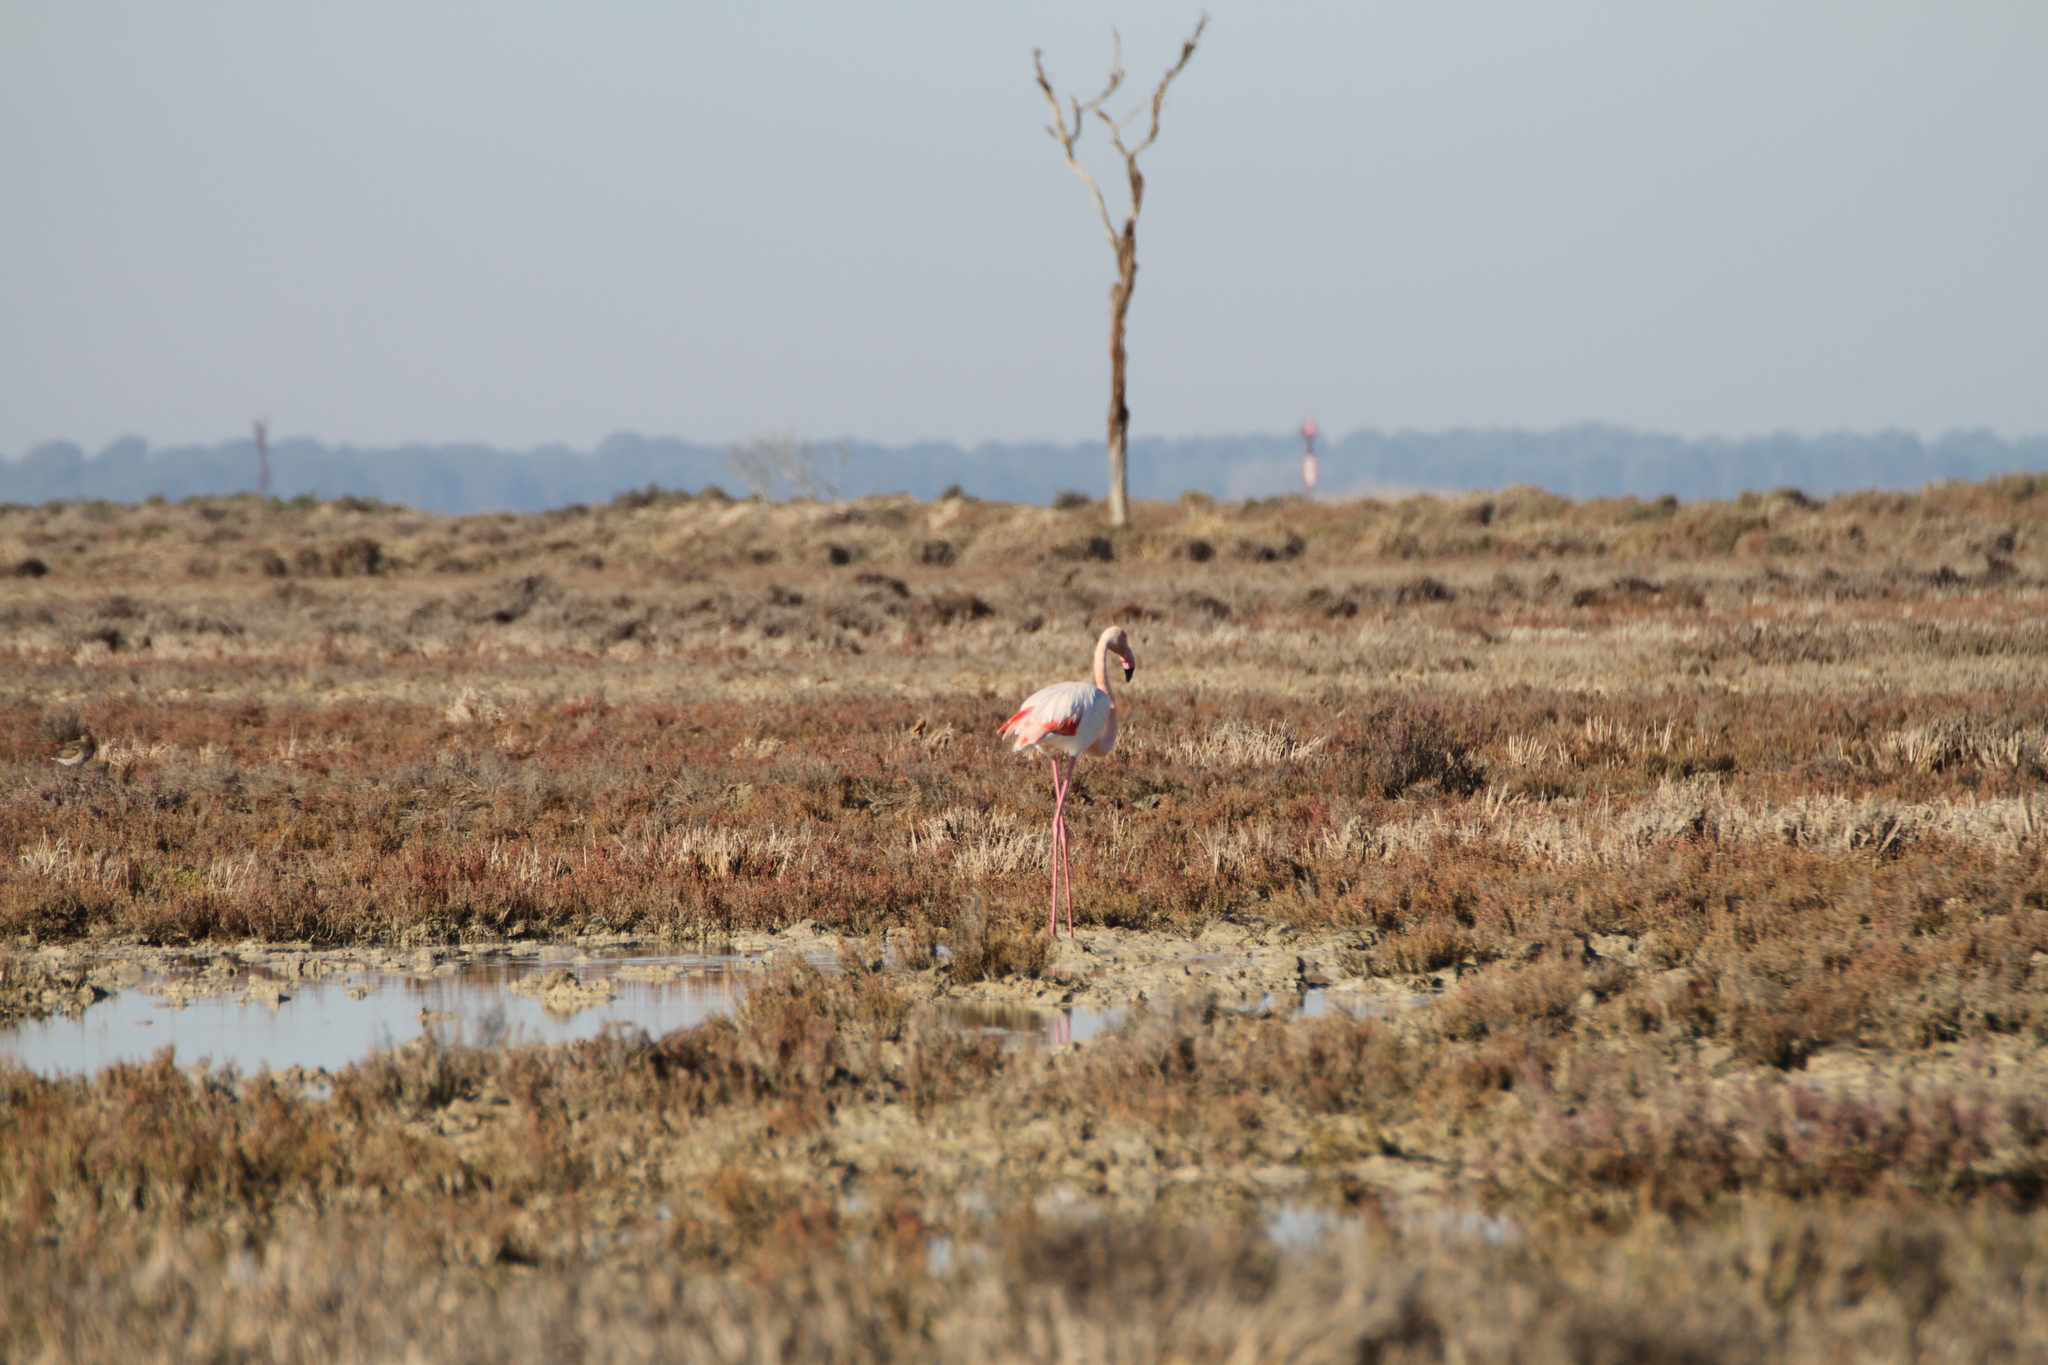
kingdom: Animalia
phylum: Chordata
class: Aves
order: Phoenicopteriformes
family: Phoenicopteridae
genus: Phoenicopterus
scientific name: Phoenicopterus roseus
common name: Greater flamingo
